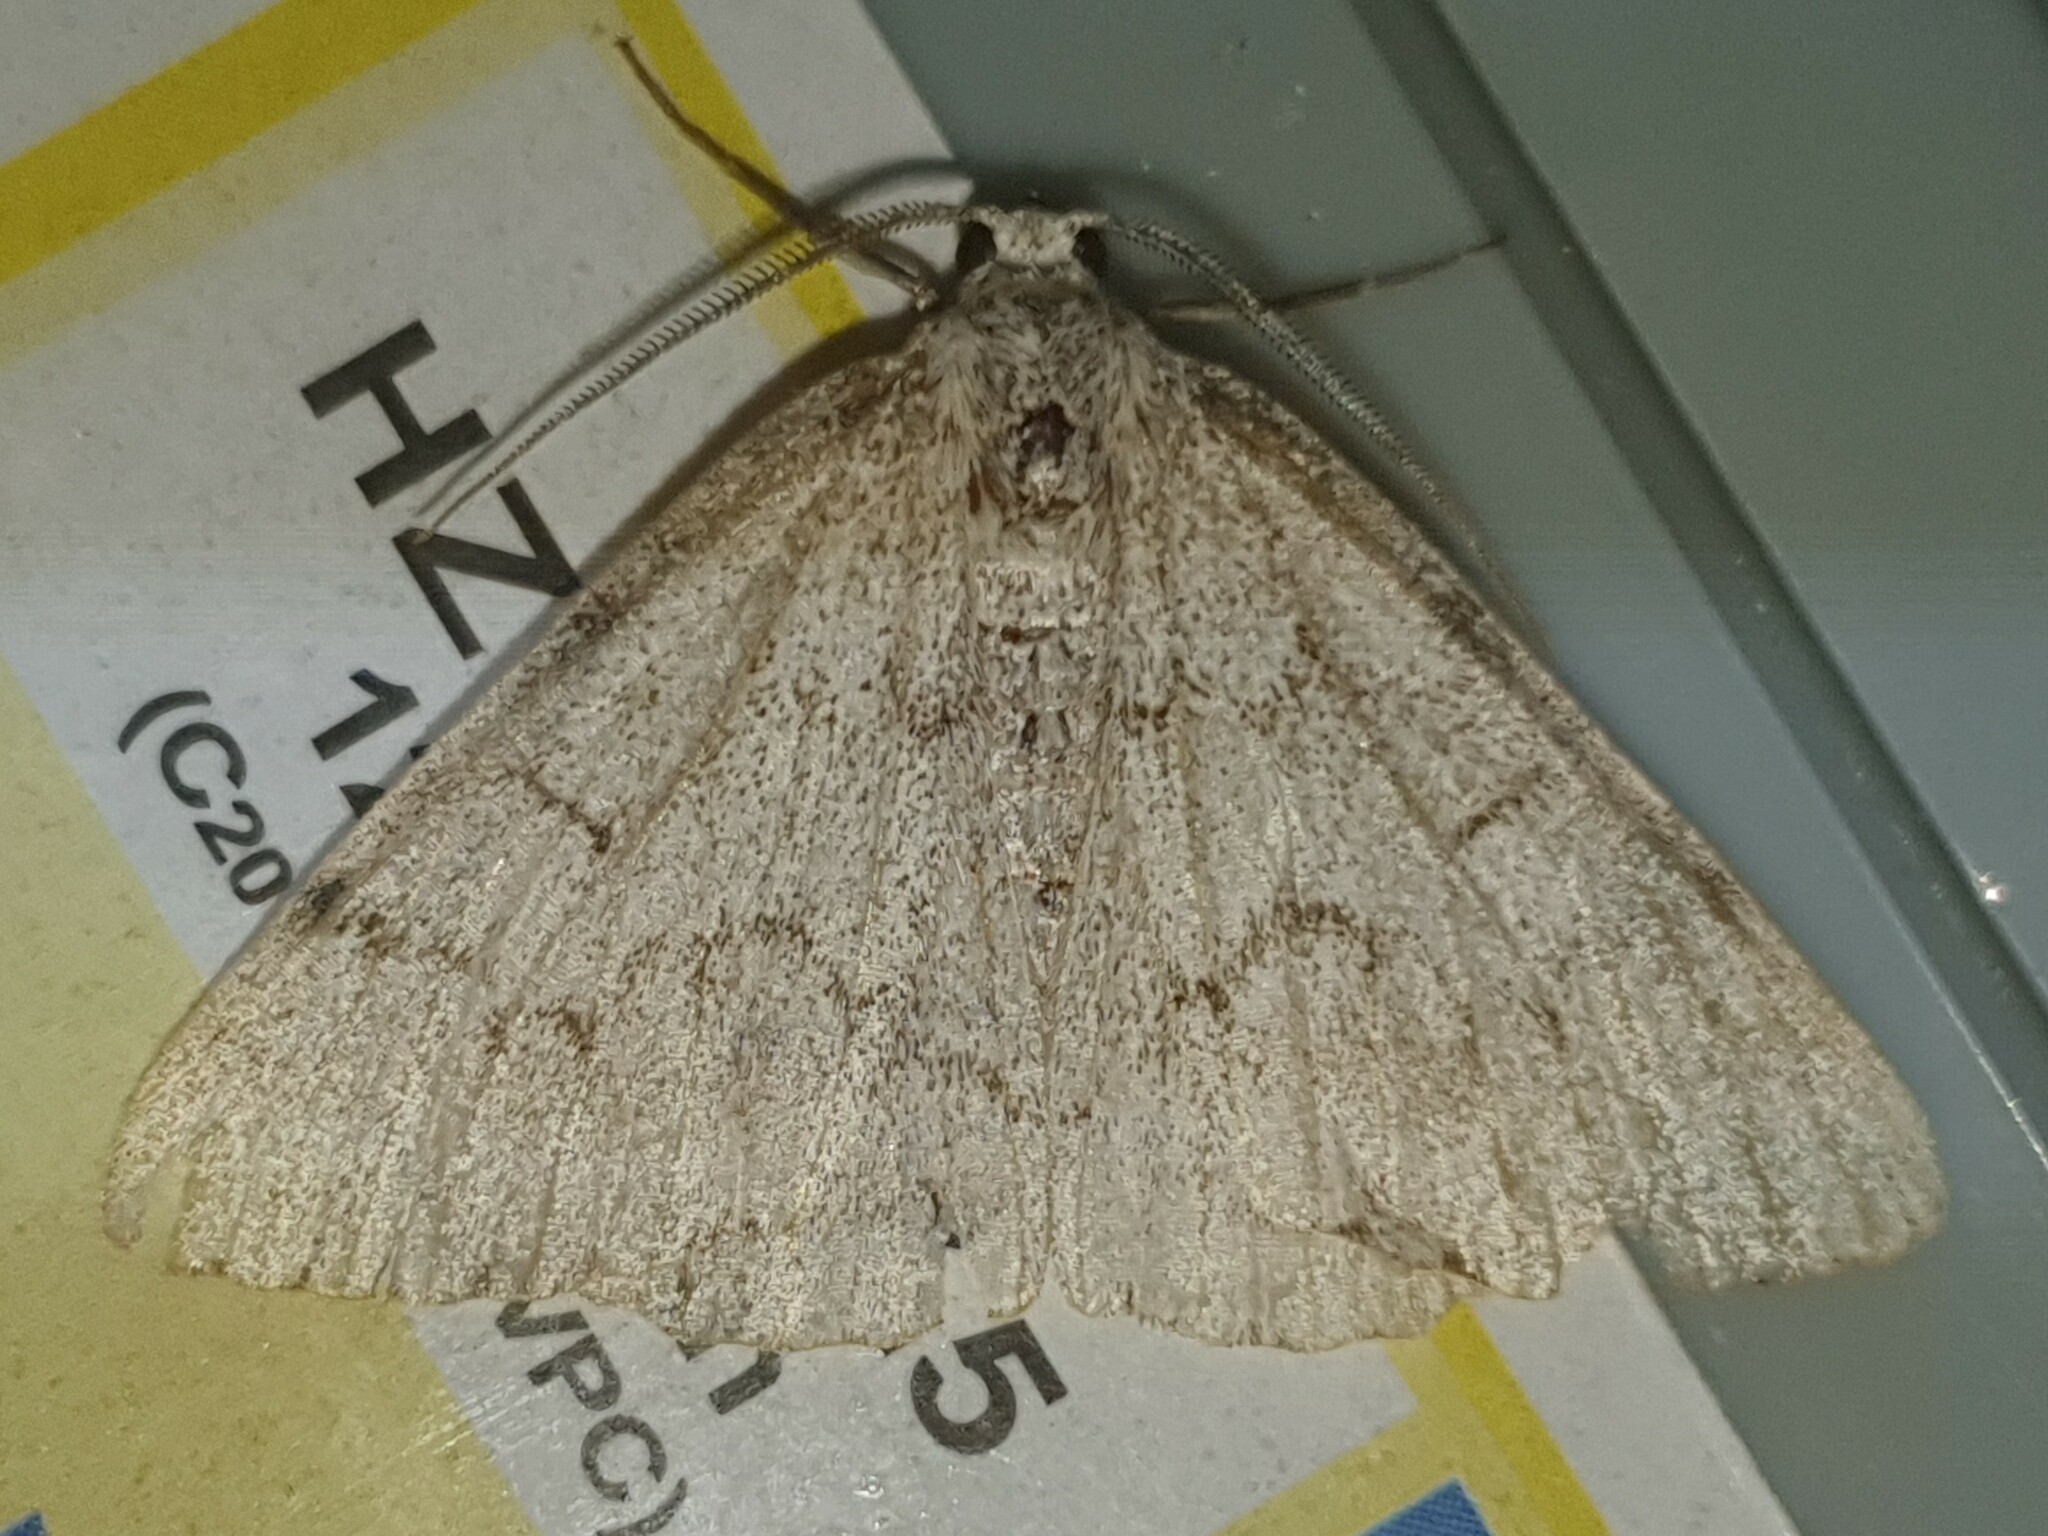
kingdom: Animalia
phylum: Arthropoda
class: Insecta
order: Lepidoptera
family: Geometridae
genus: Pseudoterpna
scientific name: Pseudoterpna coronillaria
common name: Jersey emerald
